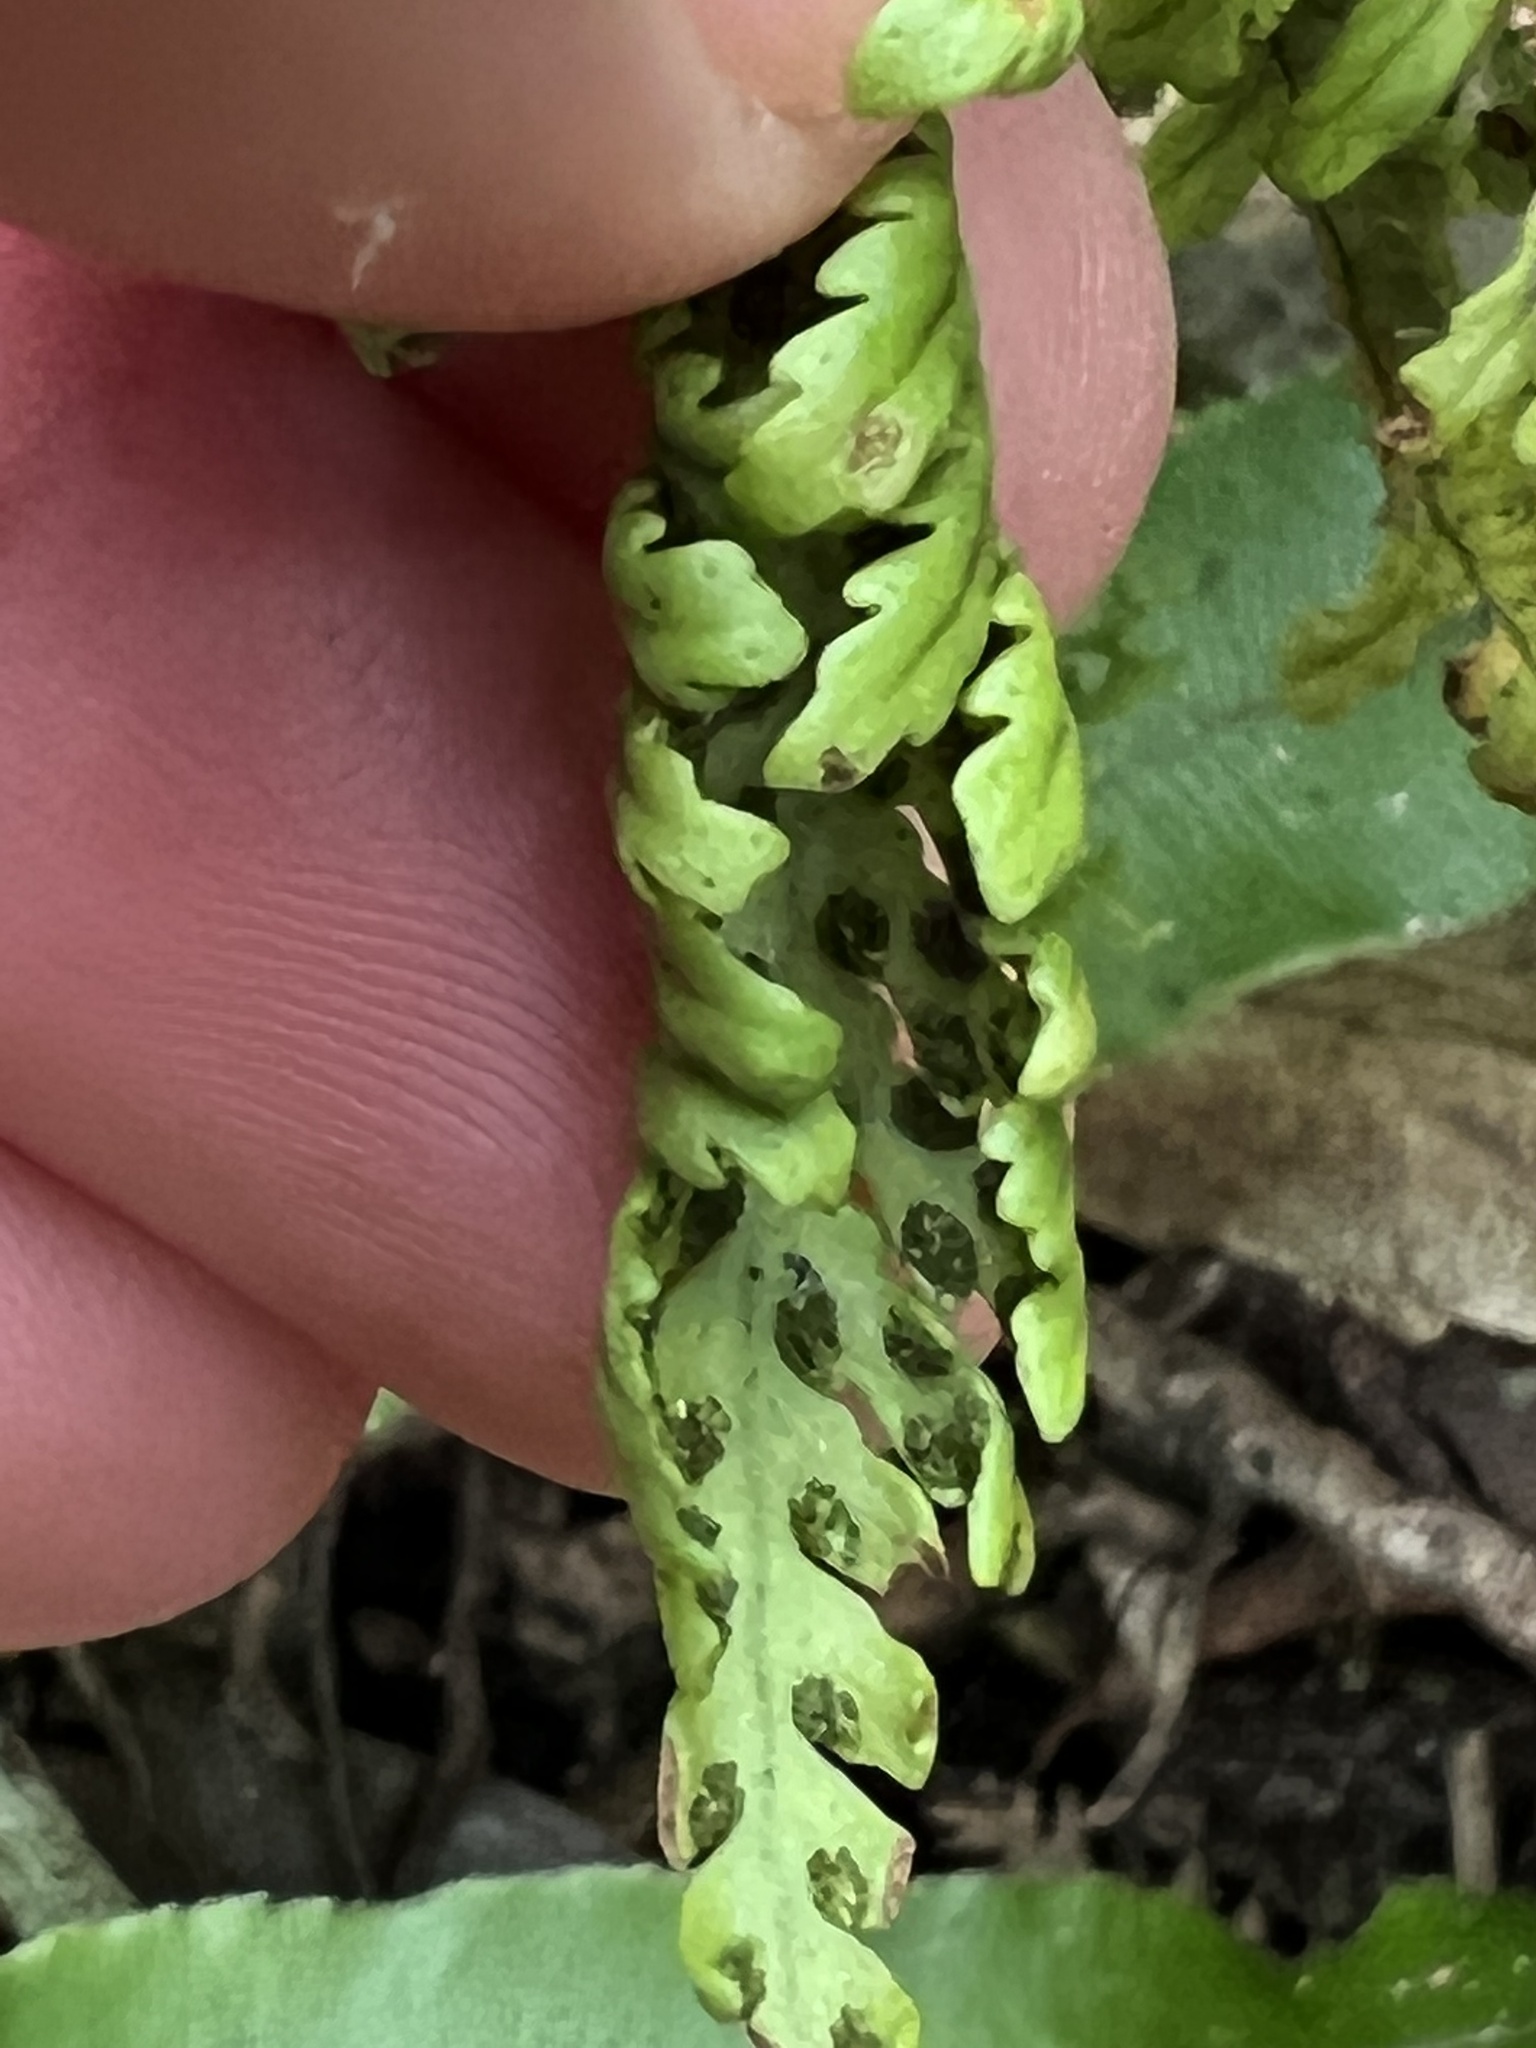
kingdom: Plantae
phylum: Tracheophyta
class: Polypodiopsida
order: Polypodiales
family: Polypodiaceae
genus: Notogrammitis
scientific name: Notogrammitis heterophylla
